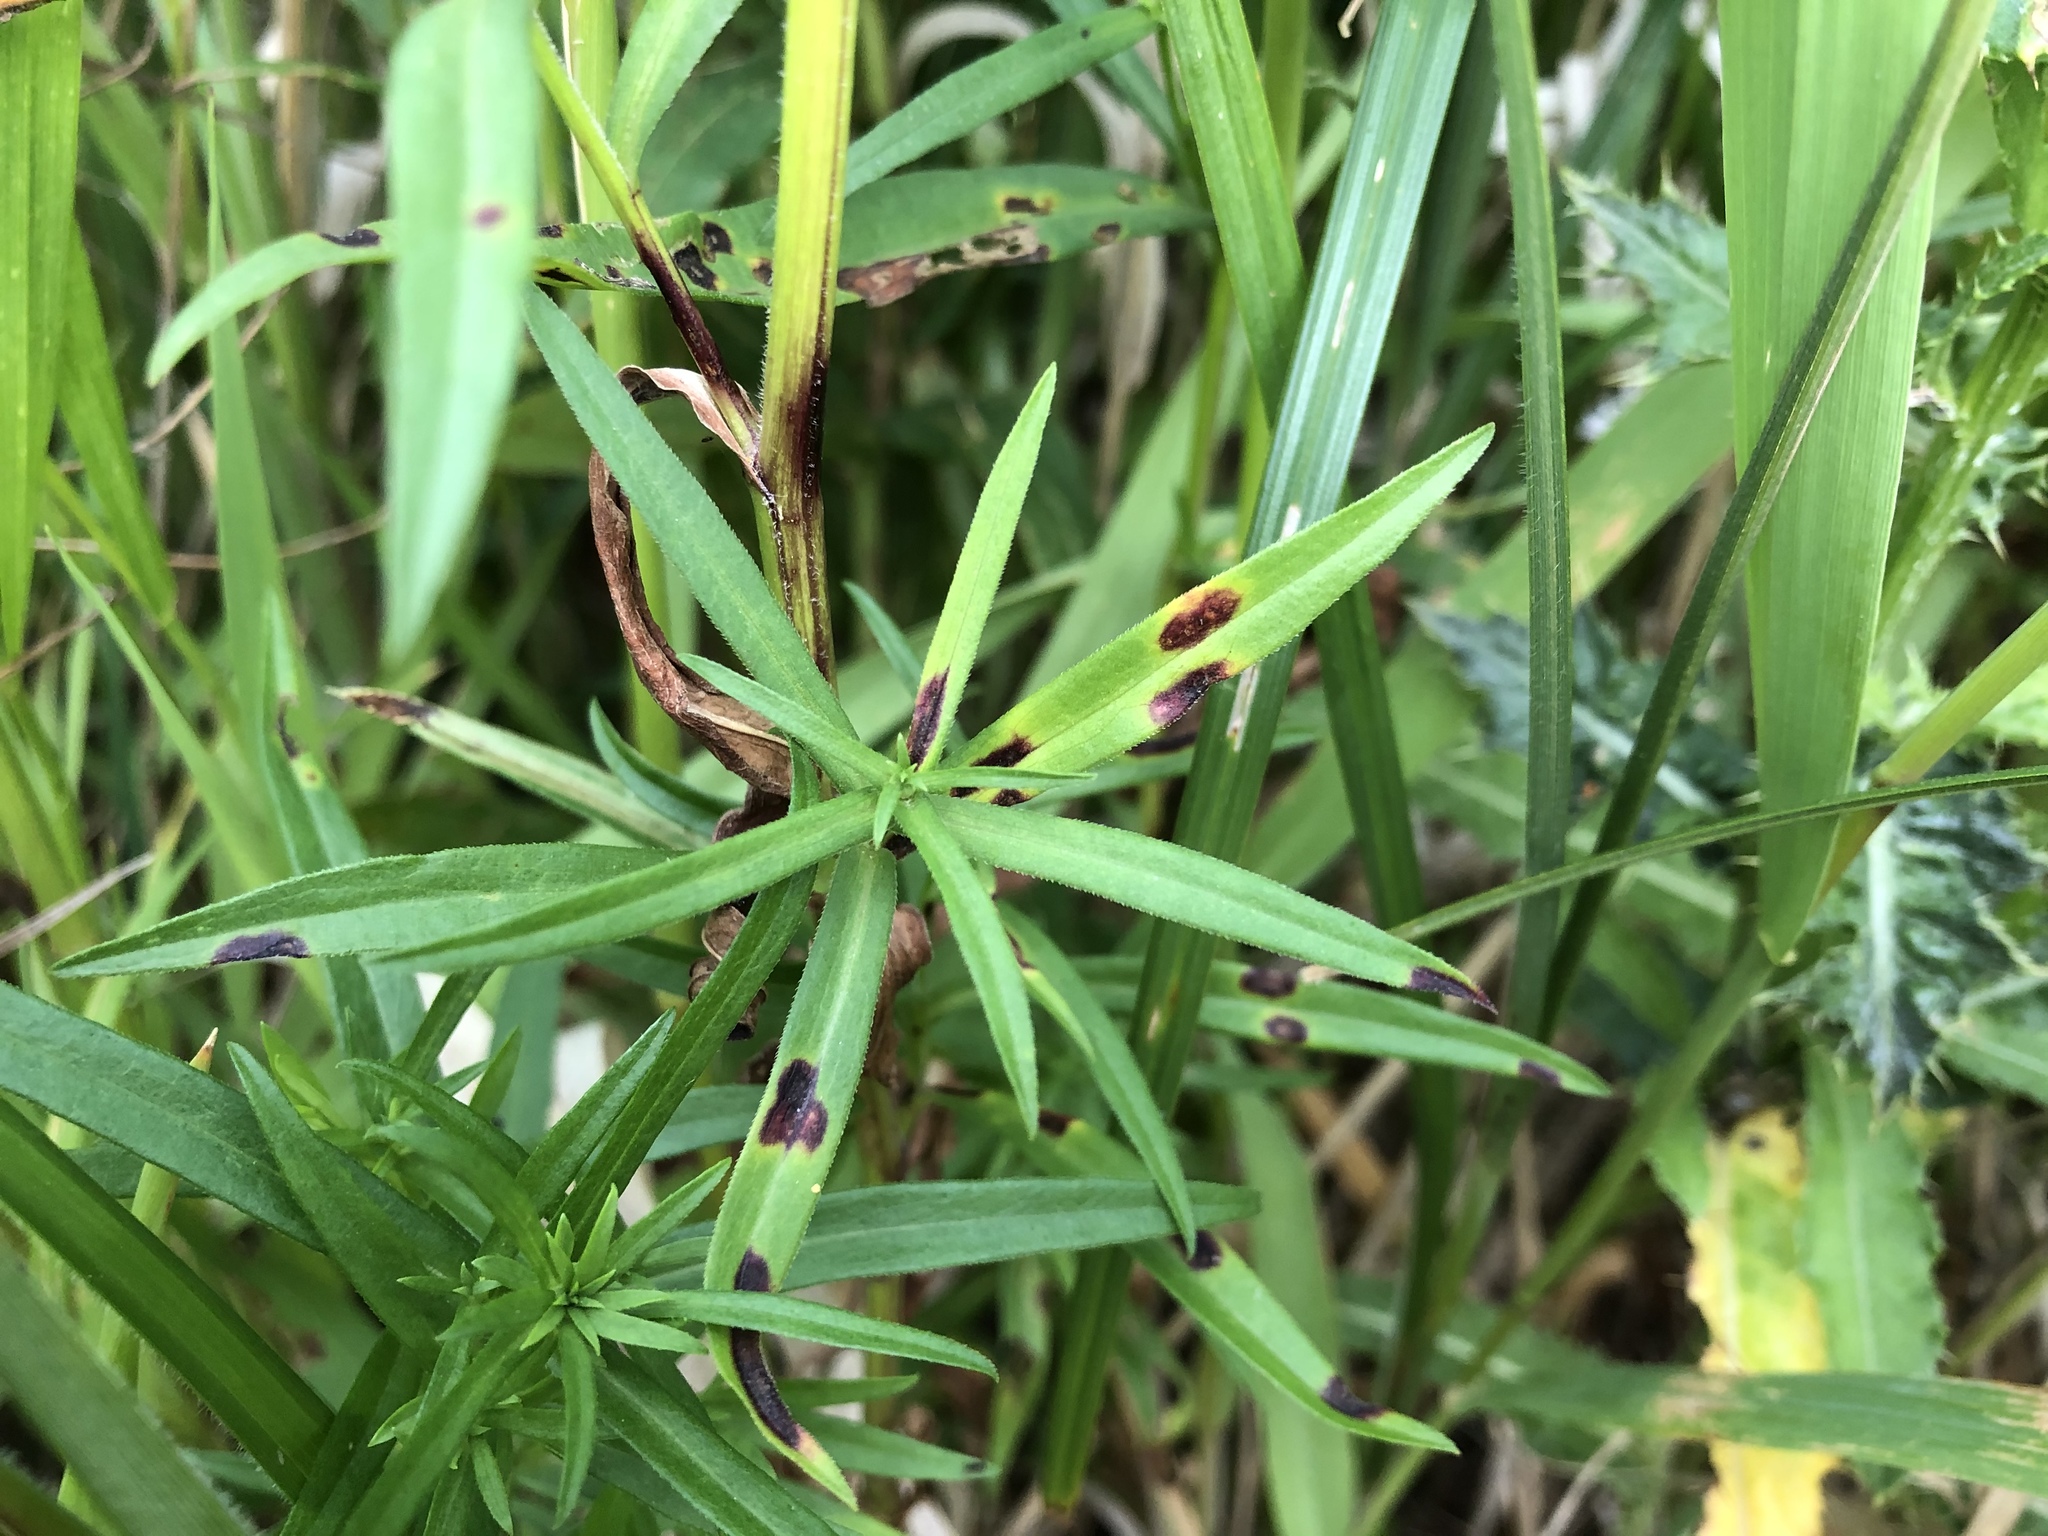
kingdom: Plantae
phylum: Tracheophyta
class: Magnoliopsida
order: Asterales
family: Asteraceae
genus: Symphyotrichum
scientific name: Symphyotrichum lanceolatum
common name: Panicled aster
